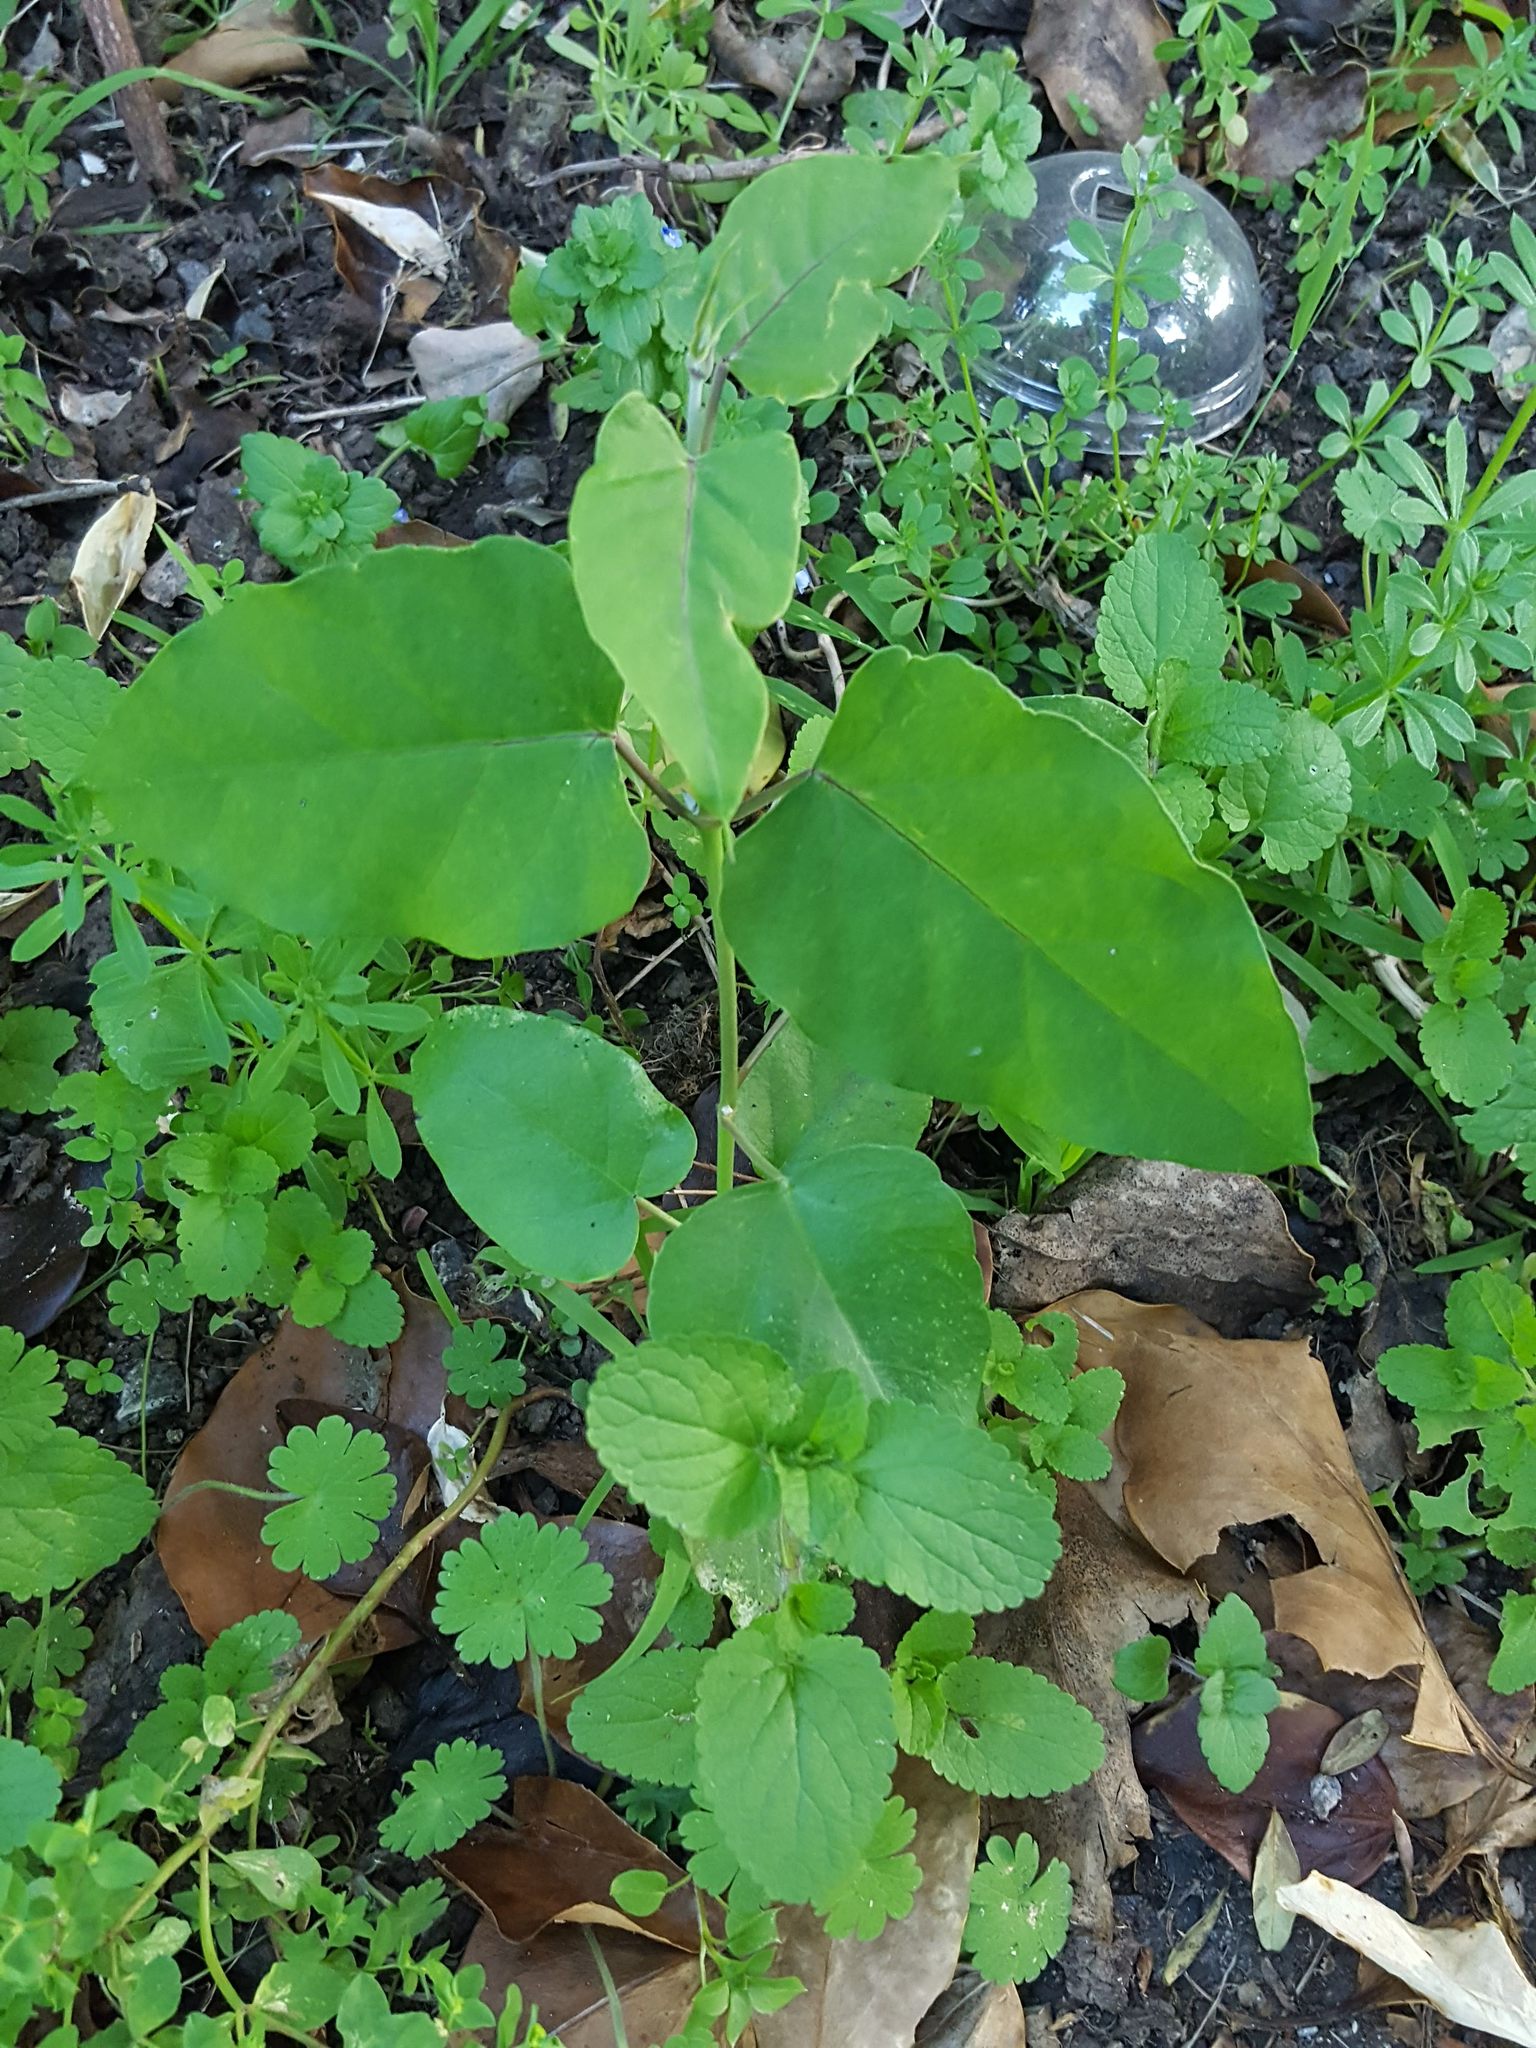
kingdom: Plantae
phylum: Tracheophyta
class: Magnoliopsida
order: Gentianales
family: Apocynaceae
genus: Araujia
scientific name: Araujia sericifera
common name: White bladderflower
